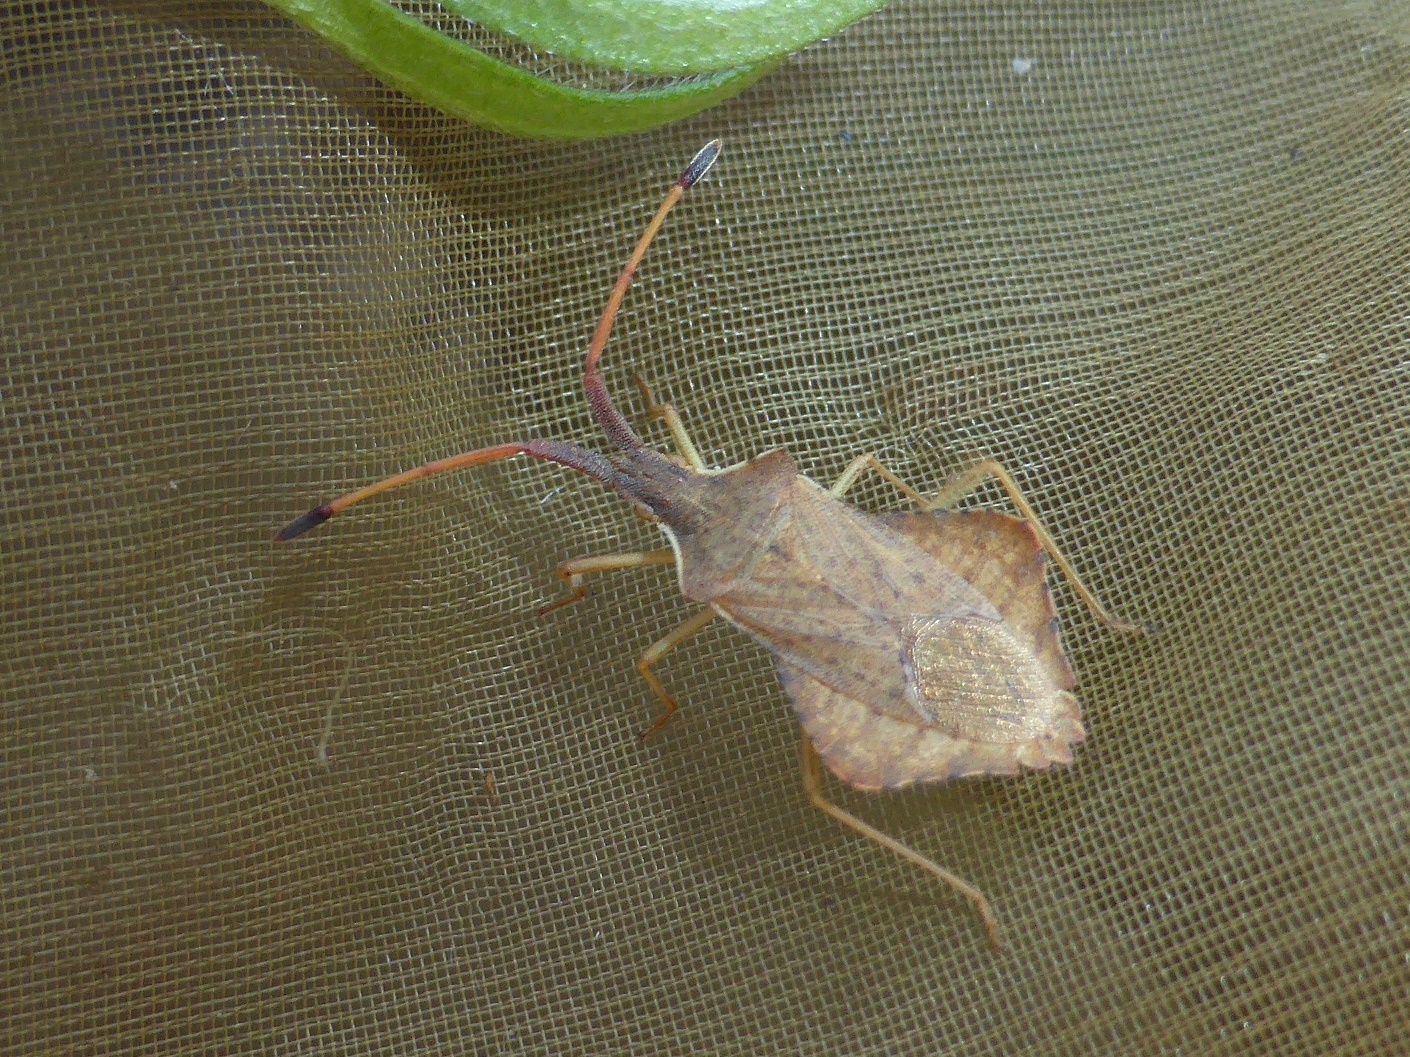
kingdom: Animalia
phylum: Arthropoda
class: Insecta
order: Hemiptera
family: Coreidae
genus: Syromastus
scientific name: Syromastus rhombeus
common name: Rhombic leatherbug
